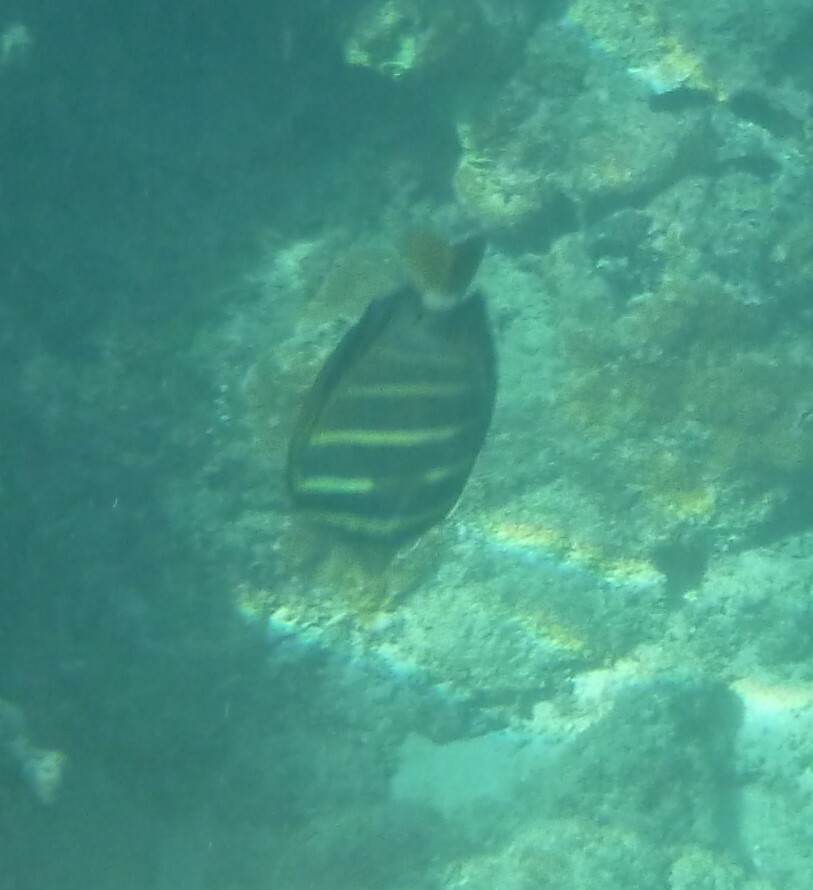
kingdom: Animalia
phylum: Chordata
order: Perciformes
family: Acanthuridae
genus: Zebrasoma
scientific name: Zebrasoma veliferum
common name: Sailfin surgeonfish
